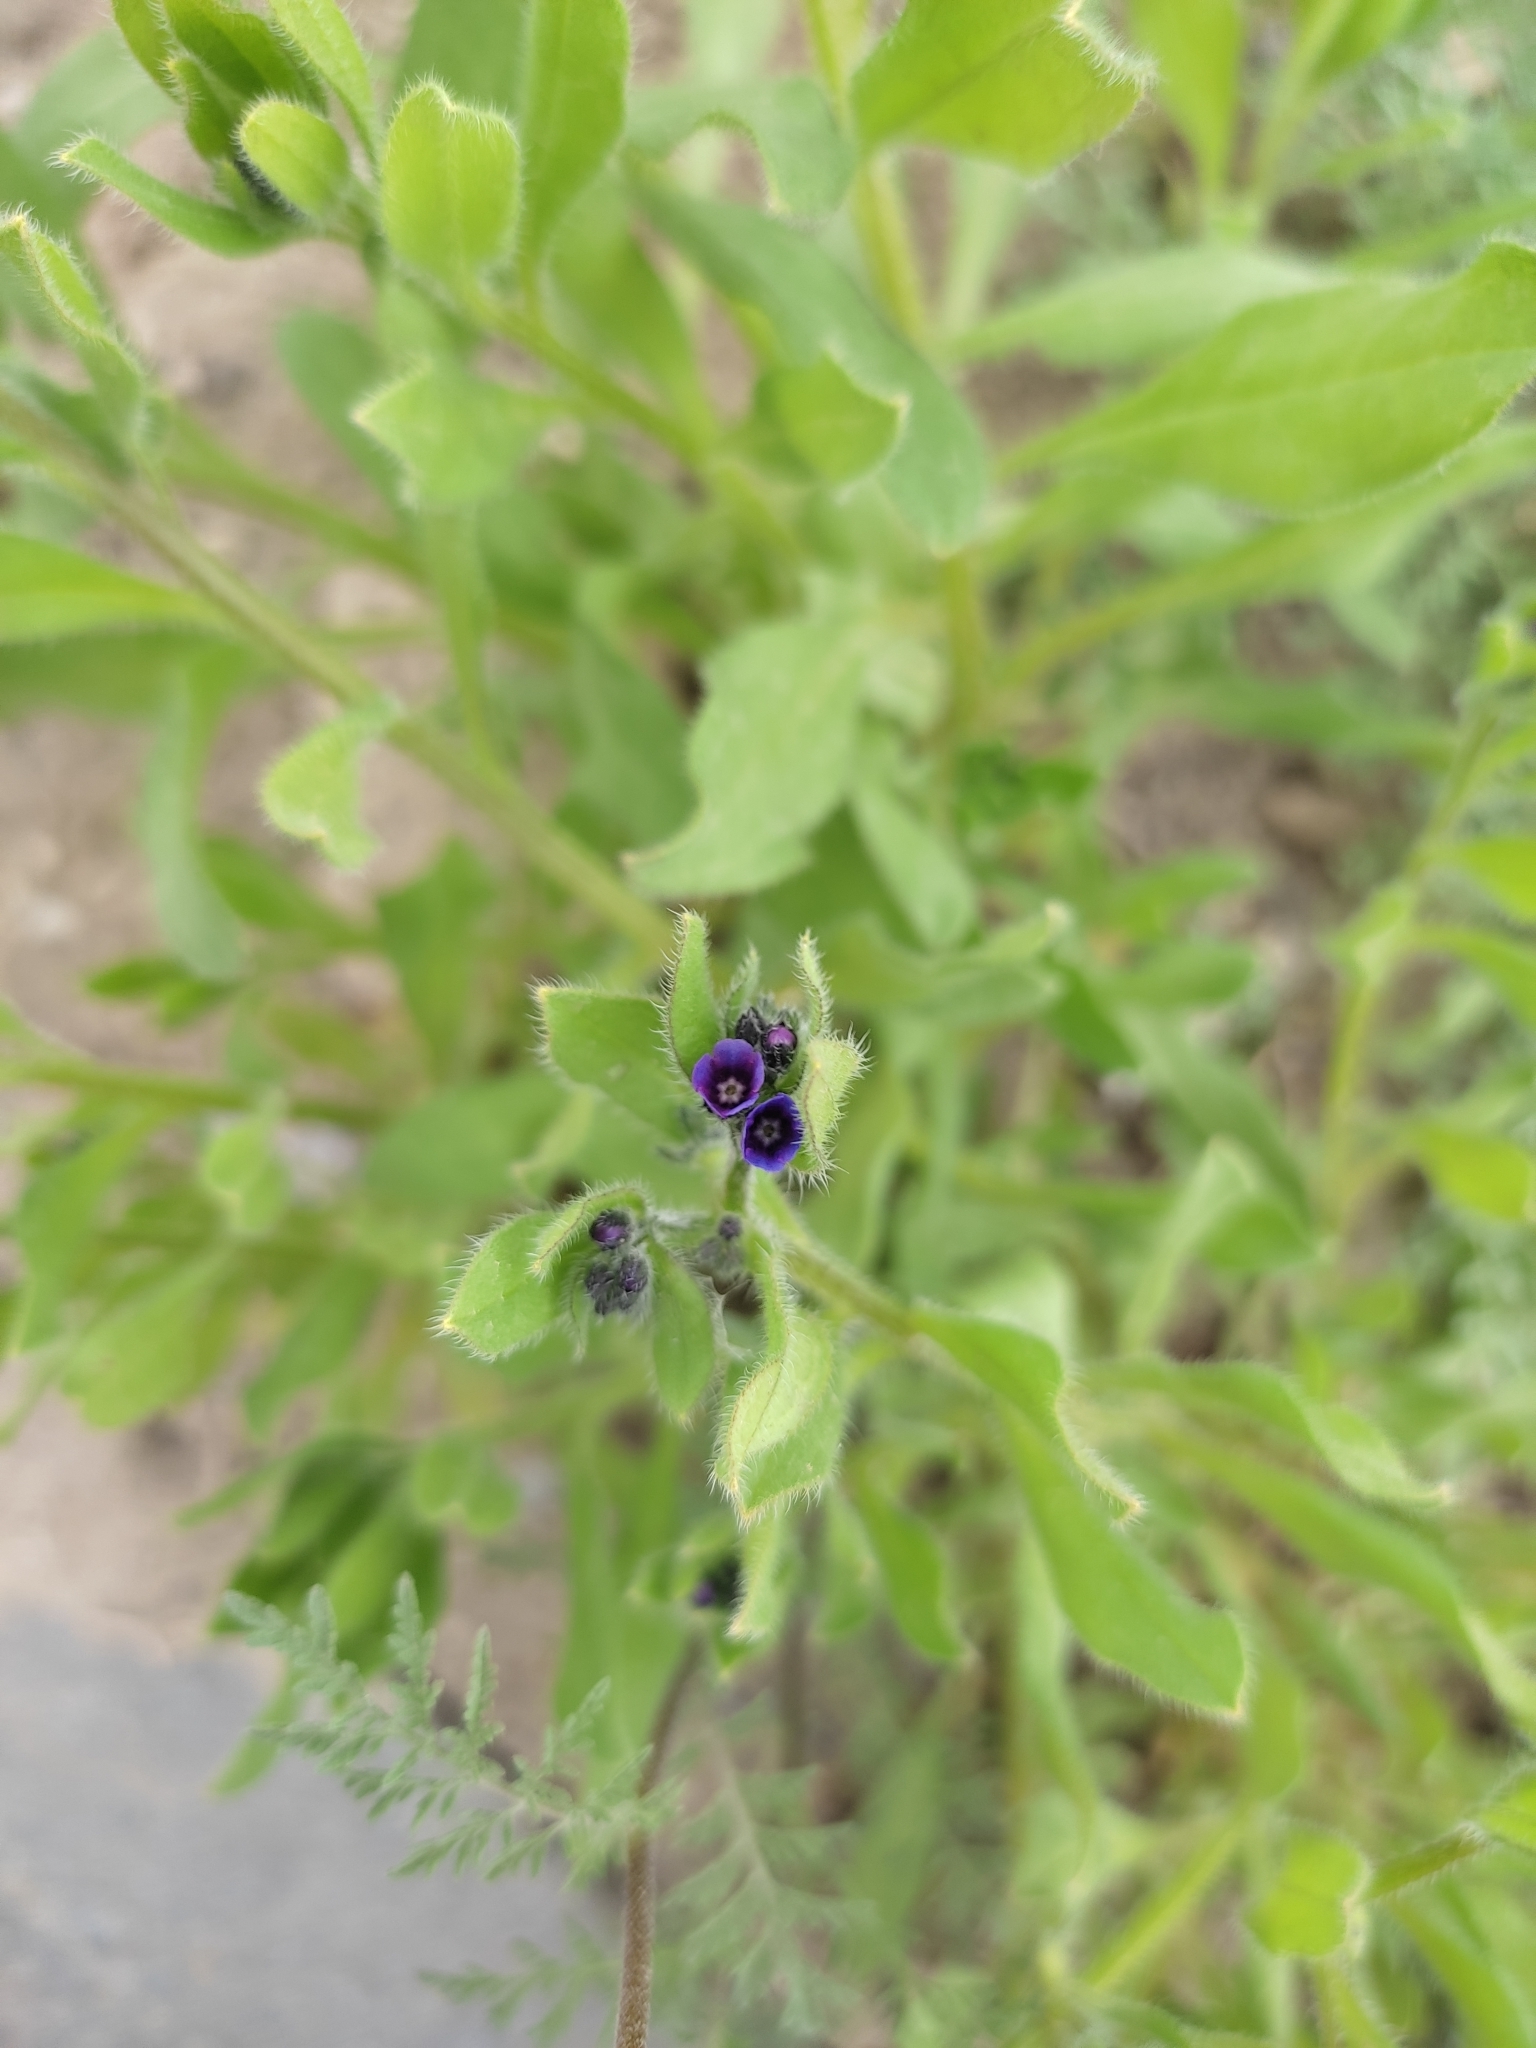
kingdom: Plantae
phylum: Tracheophyta
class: Magnoliopsida
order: Boraginales
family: Boraginaceae
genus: Asperugo
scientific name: Asperugo procumbens
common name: Madwort
